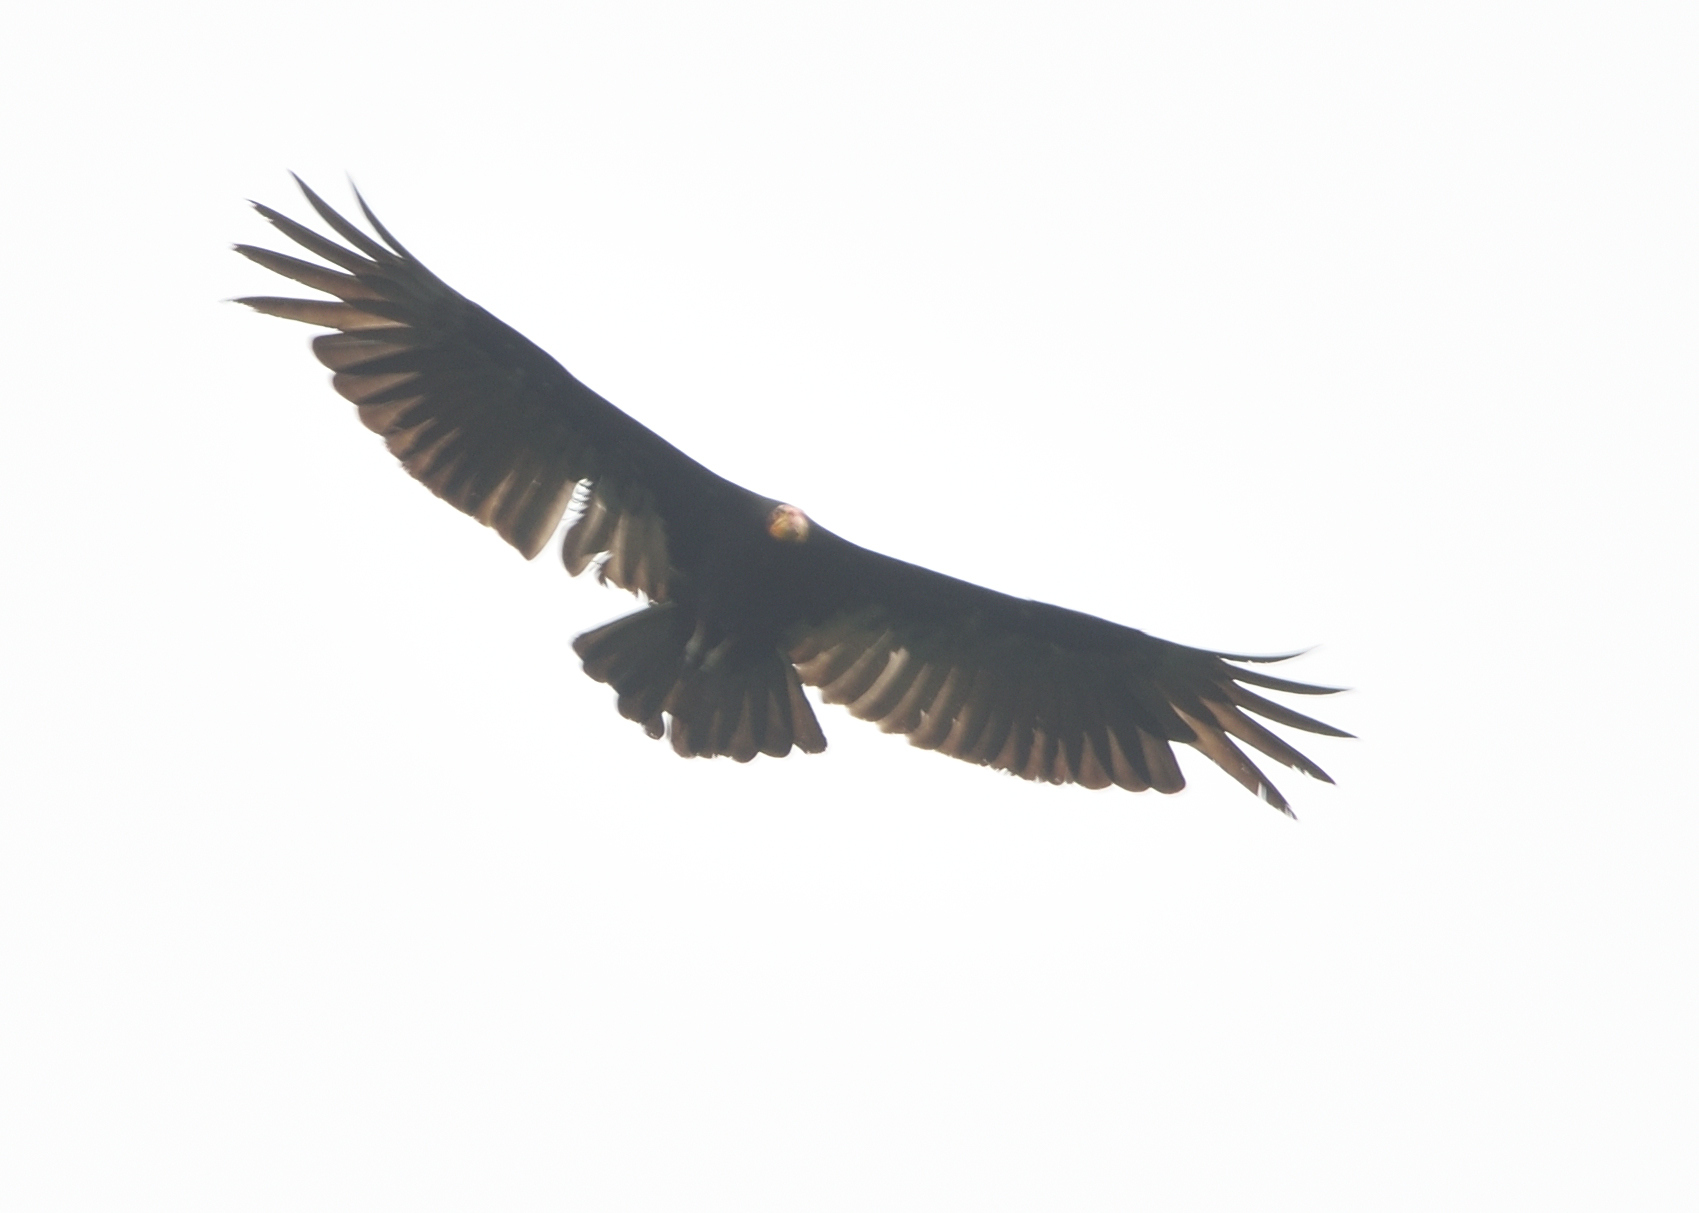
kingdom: Animalia
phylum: Chordata
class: Aves
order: Accipitriformes
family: Cathartidae
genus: Cathartes
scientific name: Cathartes melambrotus
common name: Greater yellow-headed vulture
